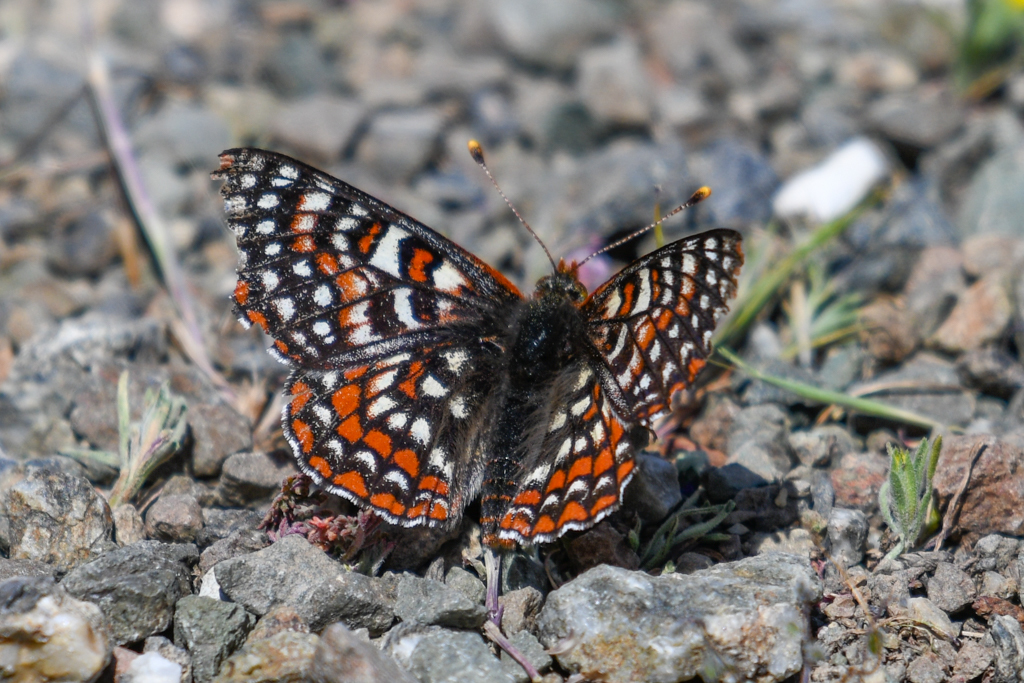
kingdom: Animalia
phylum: Arthropoda
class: Insecta
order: Lepidoptera
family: Nymphalidae
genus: Occidryas
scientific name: Occidryas editha
